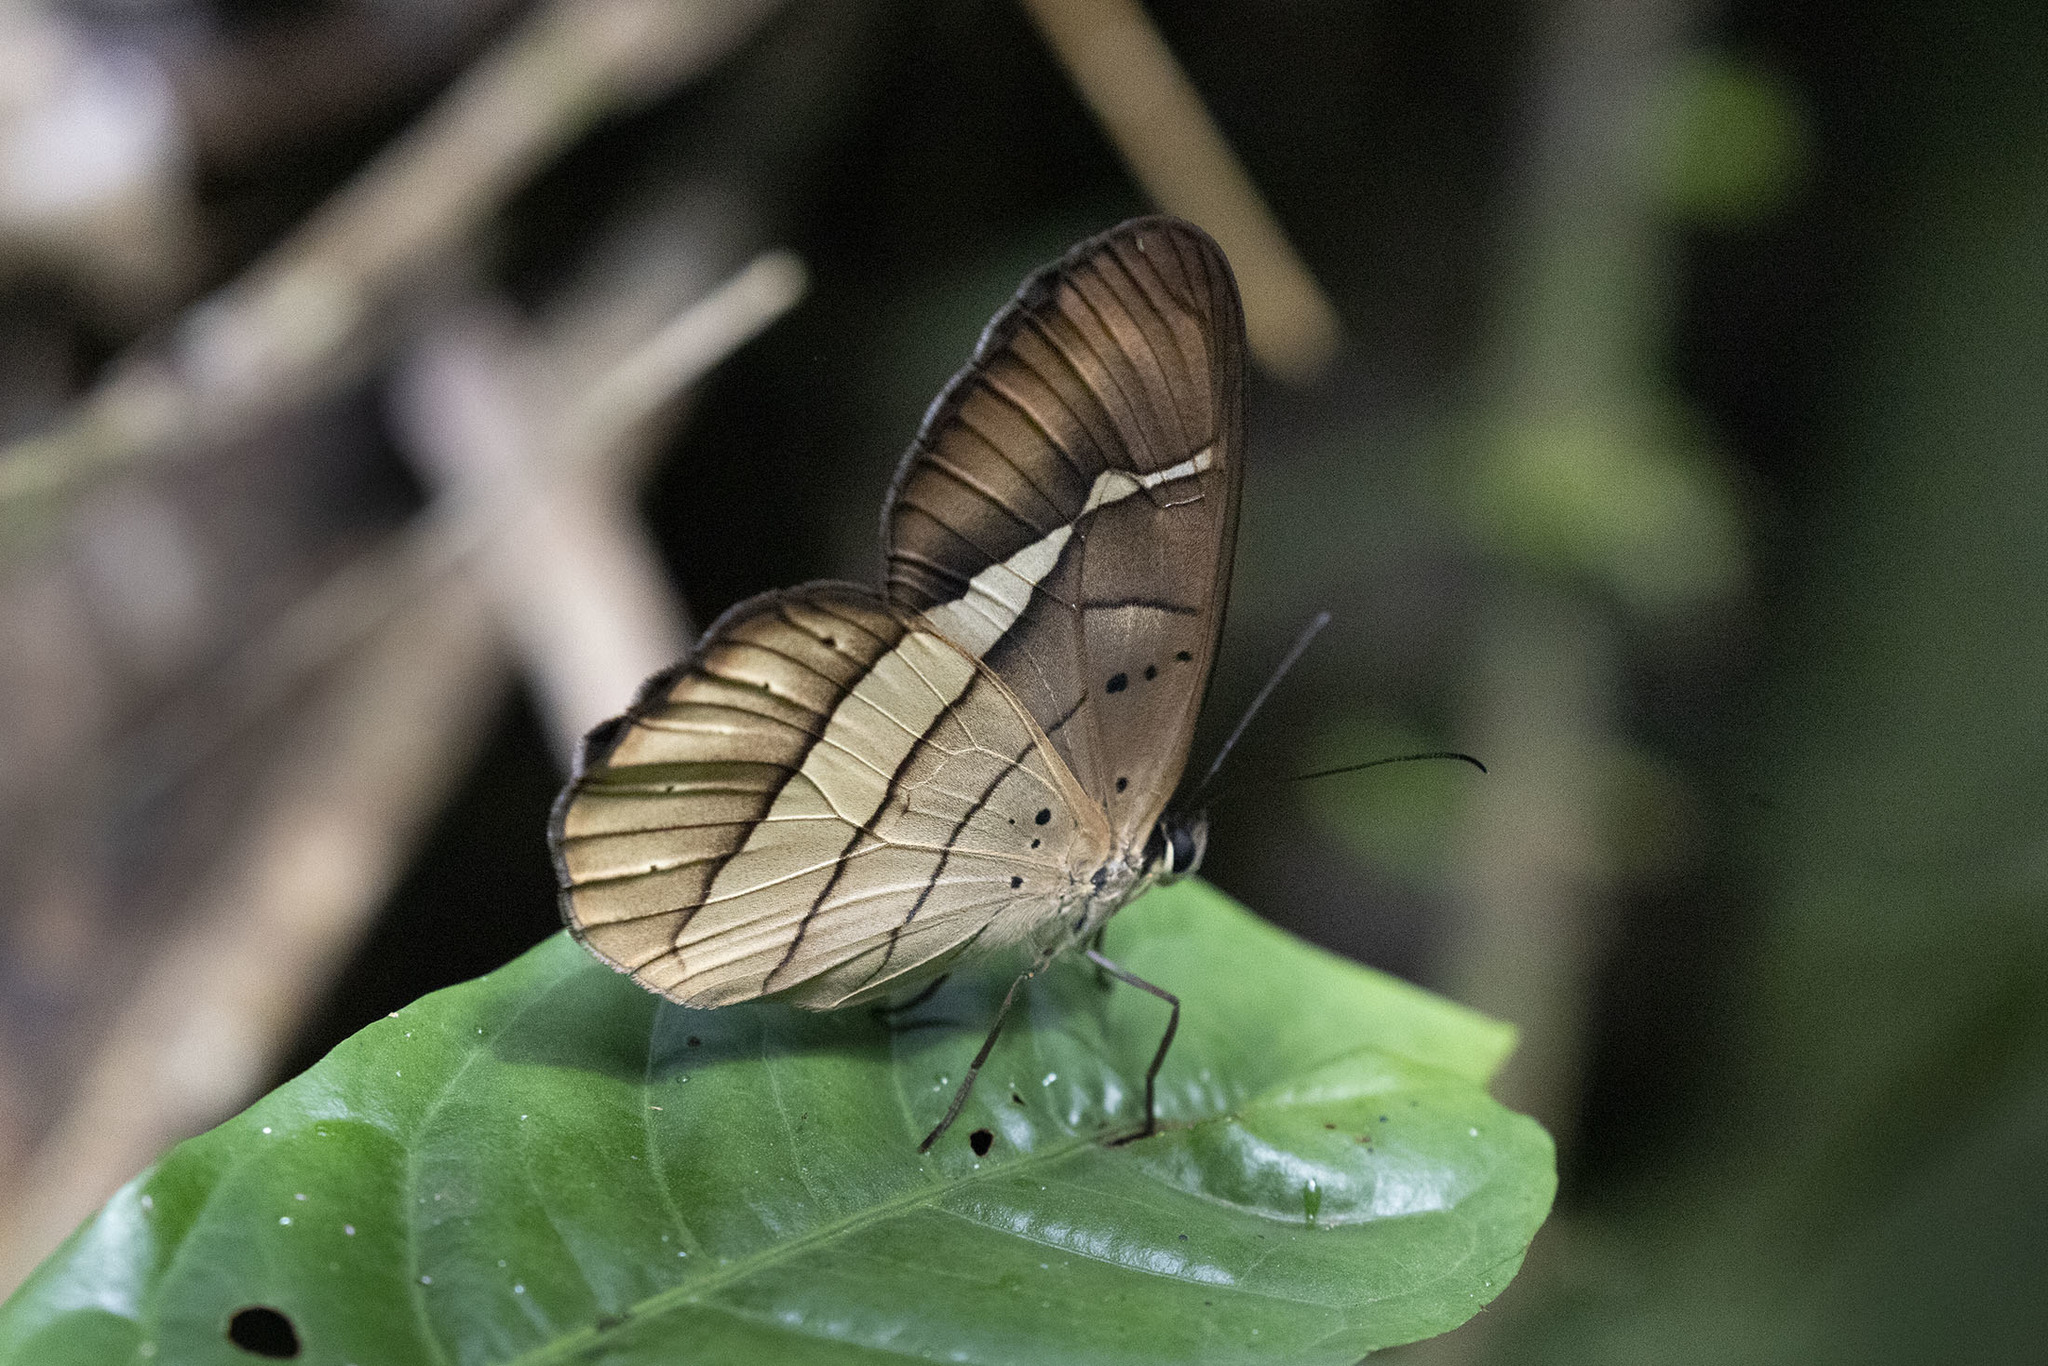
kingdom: Animalia
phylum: Arthropoda
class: Insecta
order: Lepidoptera
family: Nymphalidae
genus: Pierella
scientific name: Pierella hortona
